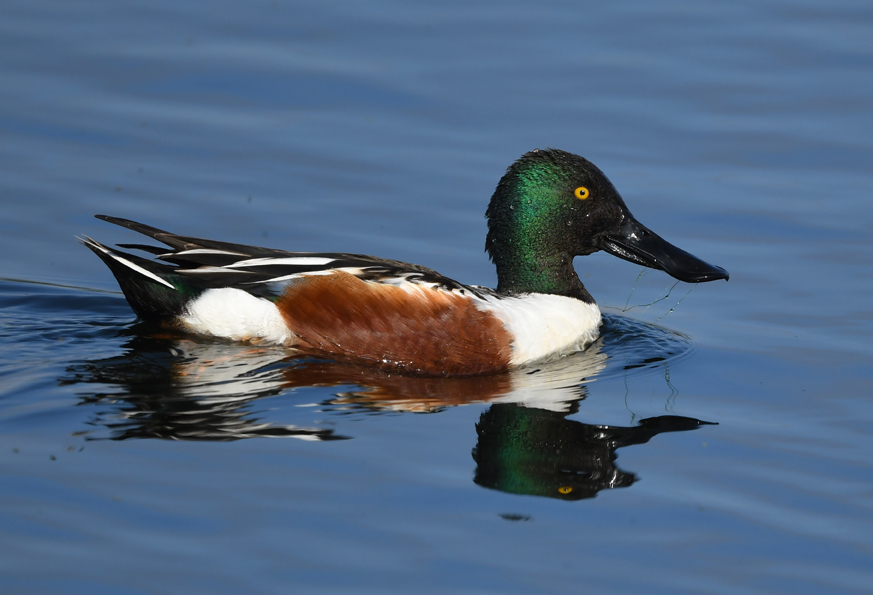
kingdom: Animalia
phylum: Chordata
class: Aves
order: Anseriformes
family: Anatidae
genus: Spatula
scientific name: Spatula clypeata
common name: Northern shoveler
